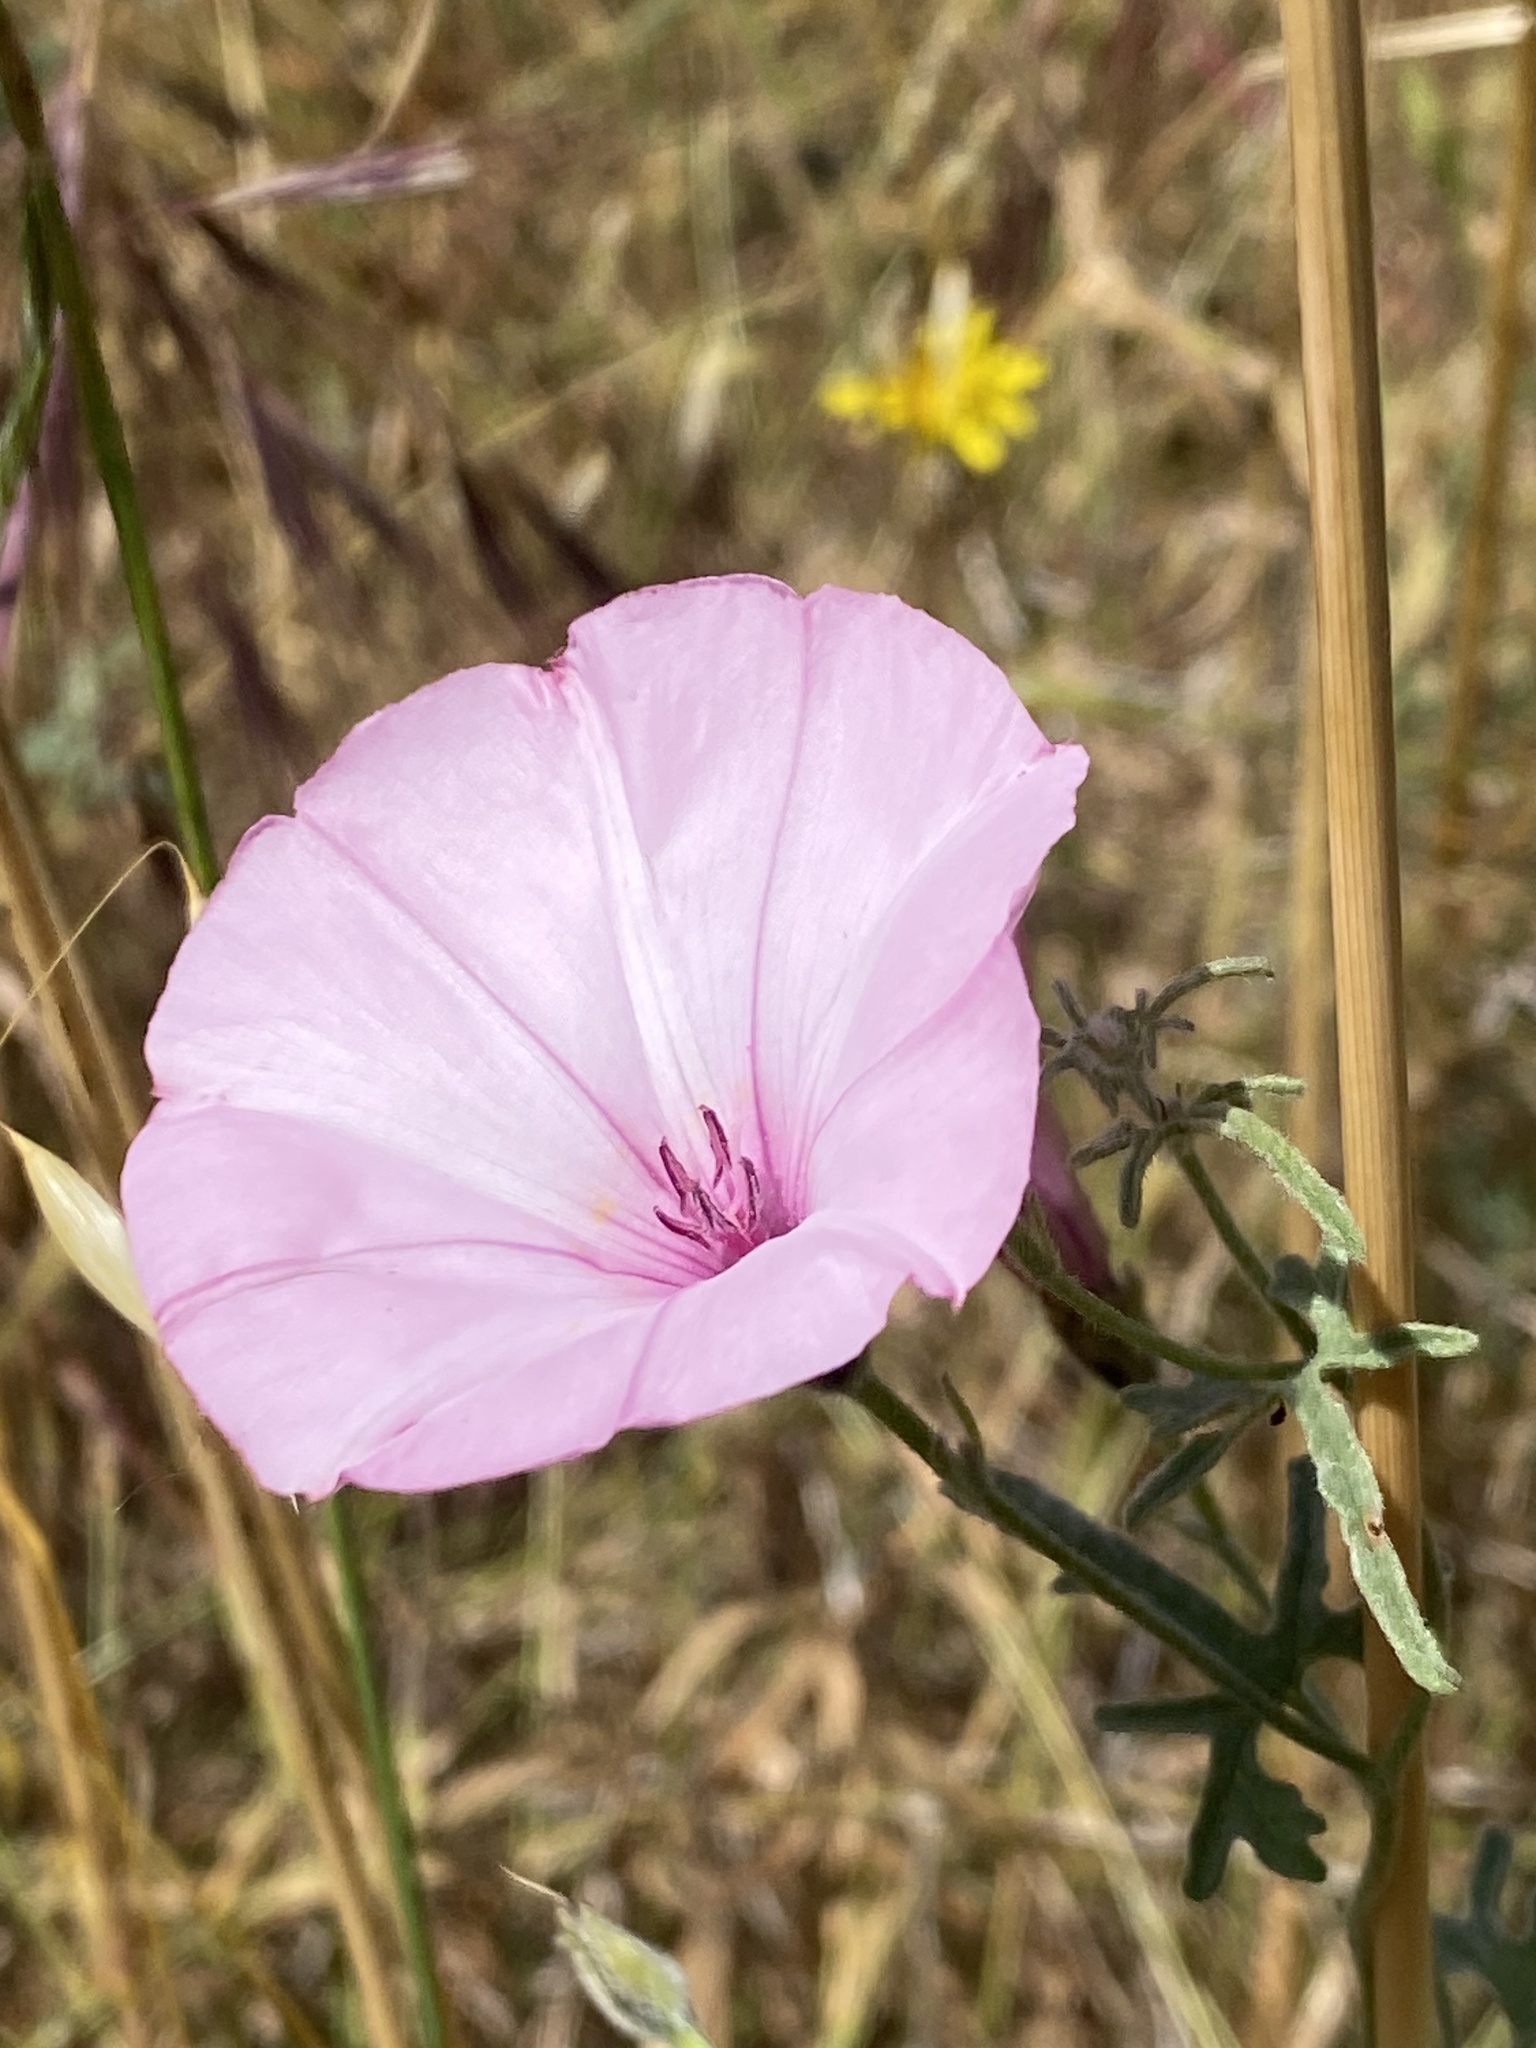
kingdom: Plantae
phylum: Tracheophyta
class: Magnoliopsida
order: Solanales
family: Convolvulaceae
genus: Convolvulus
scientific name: Convolvulus althaeoides
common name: Mallow bindweed
